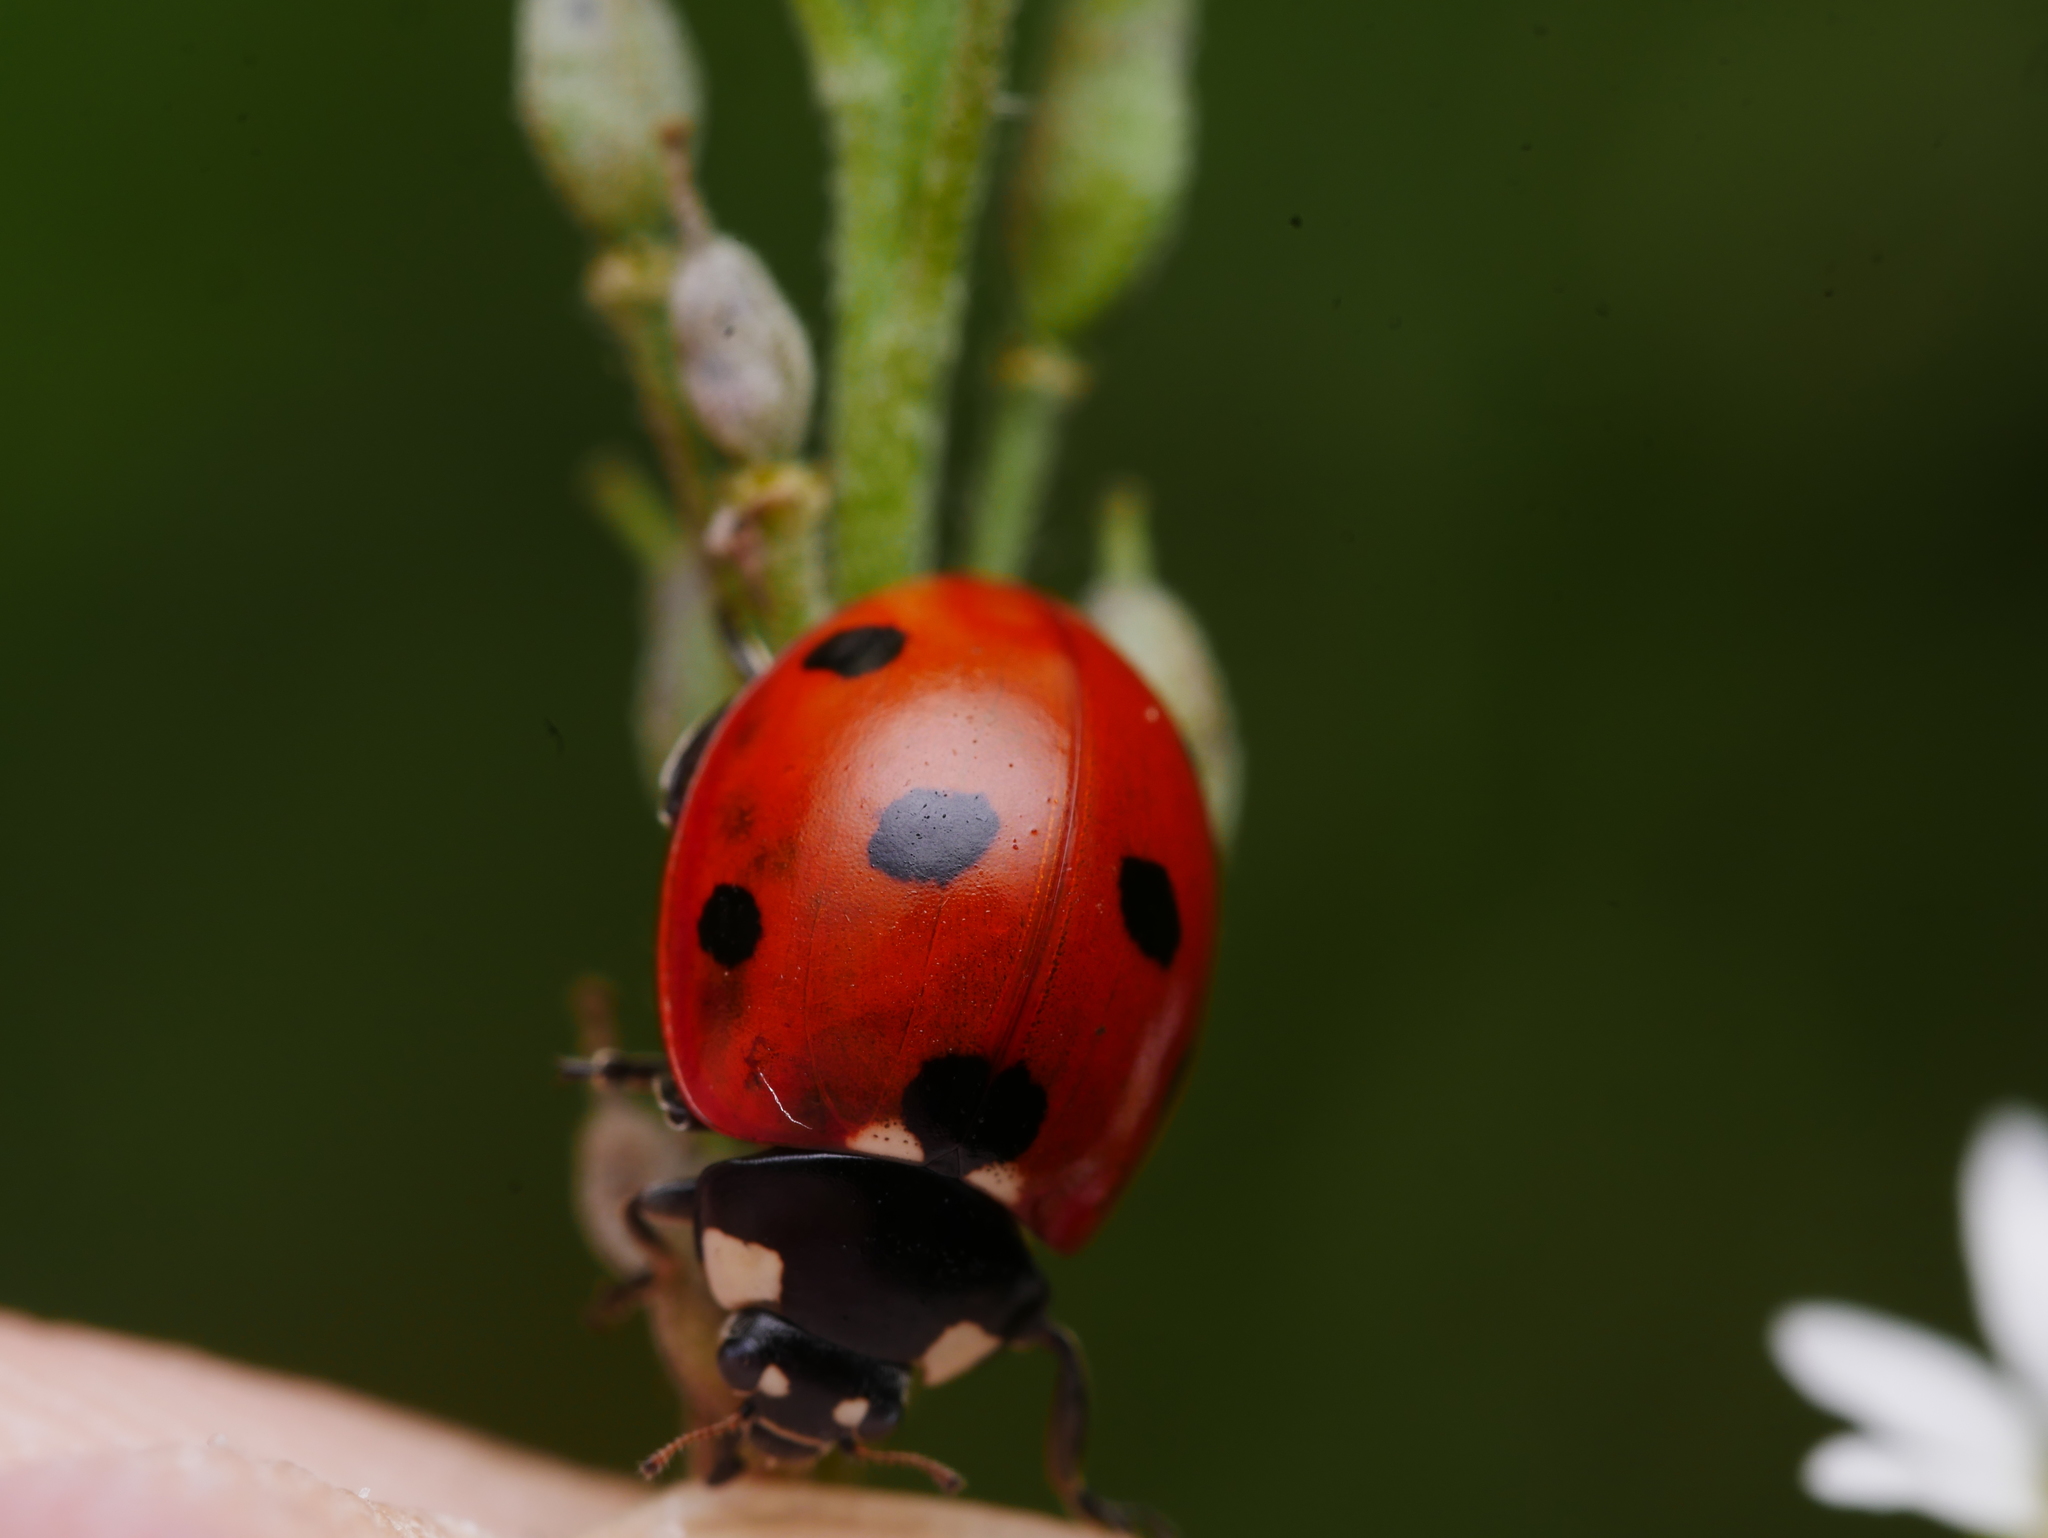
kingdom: Animalia
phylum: Arthropoda
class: Insecta
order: Coleoptera
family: Coccinellidae
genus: Coccinella
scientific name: Coccinella septempunctata
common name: Sevenspotted lady beetle
